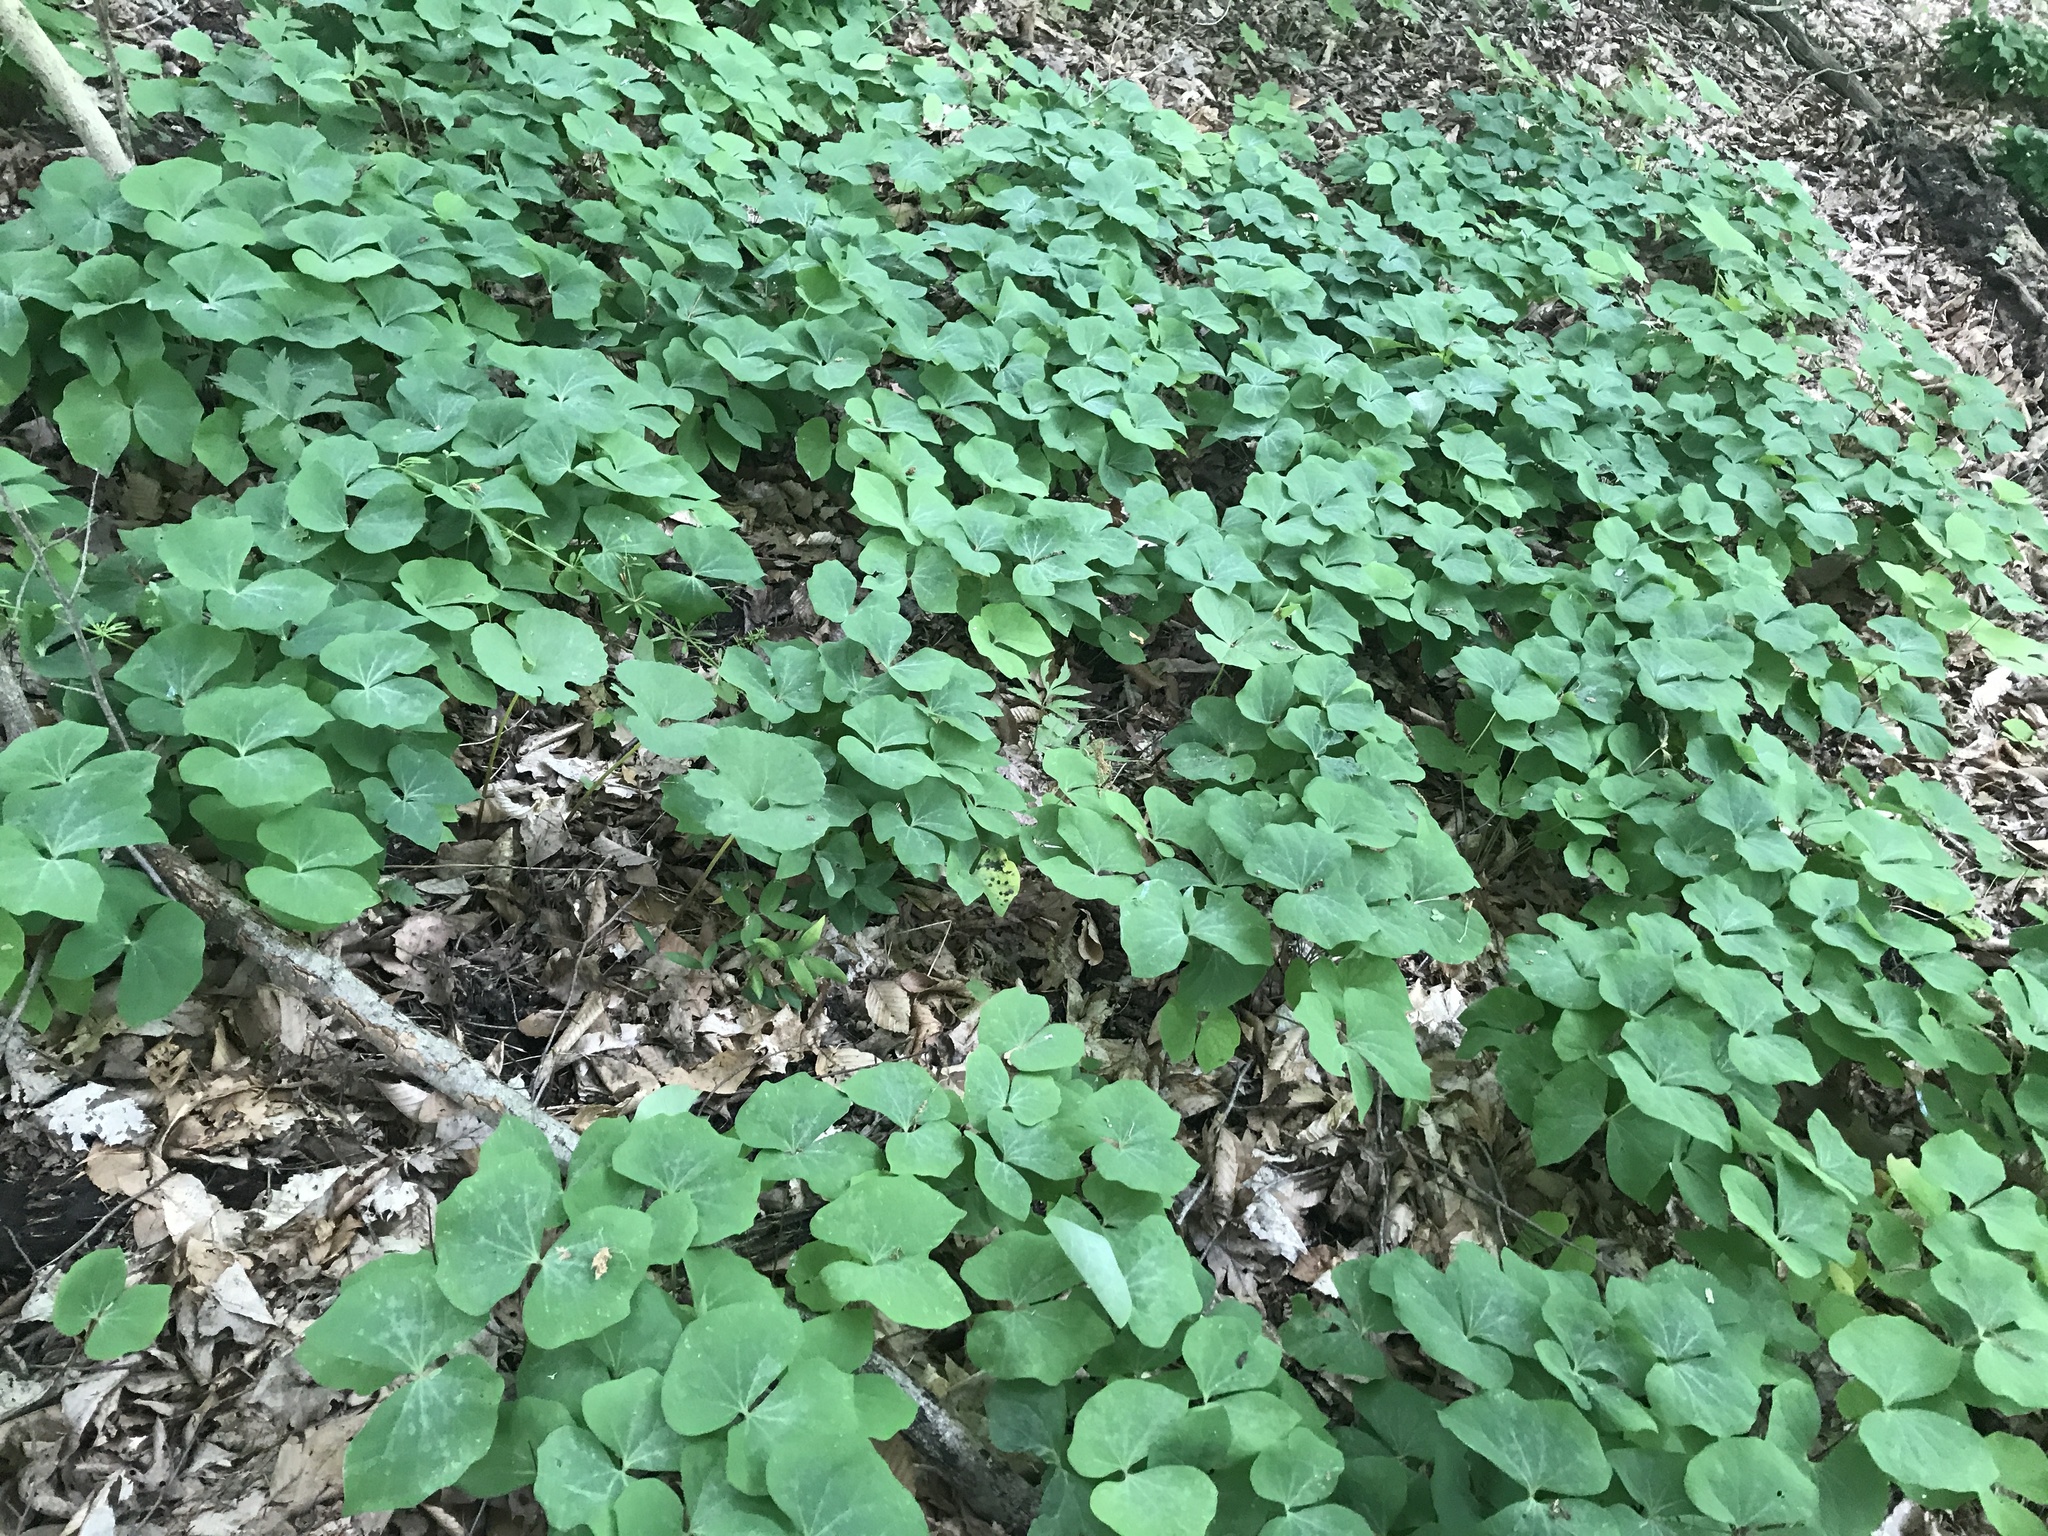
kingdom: Plantae
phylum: Tracheophyta
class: Magnoliopsida
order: Ranunculales
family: Berberidaceae
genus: Jeffersonia
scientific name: Jeffersonia diphylla
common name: Rheumatism-root
